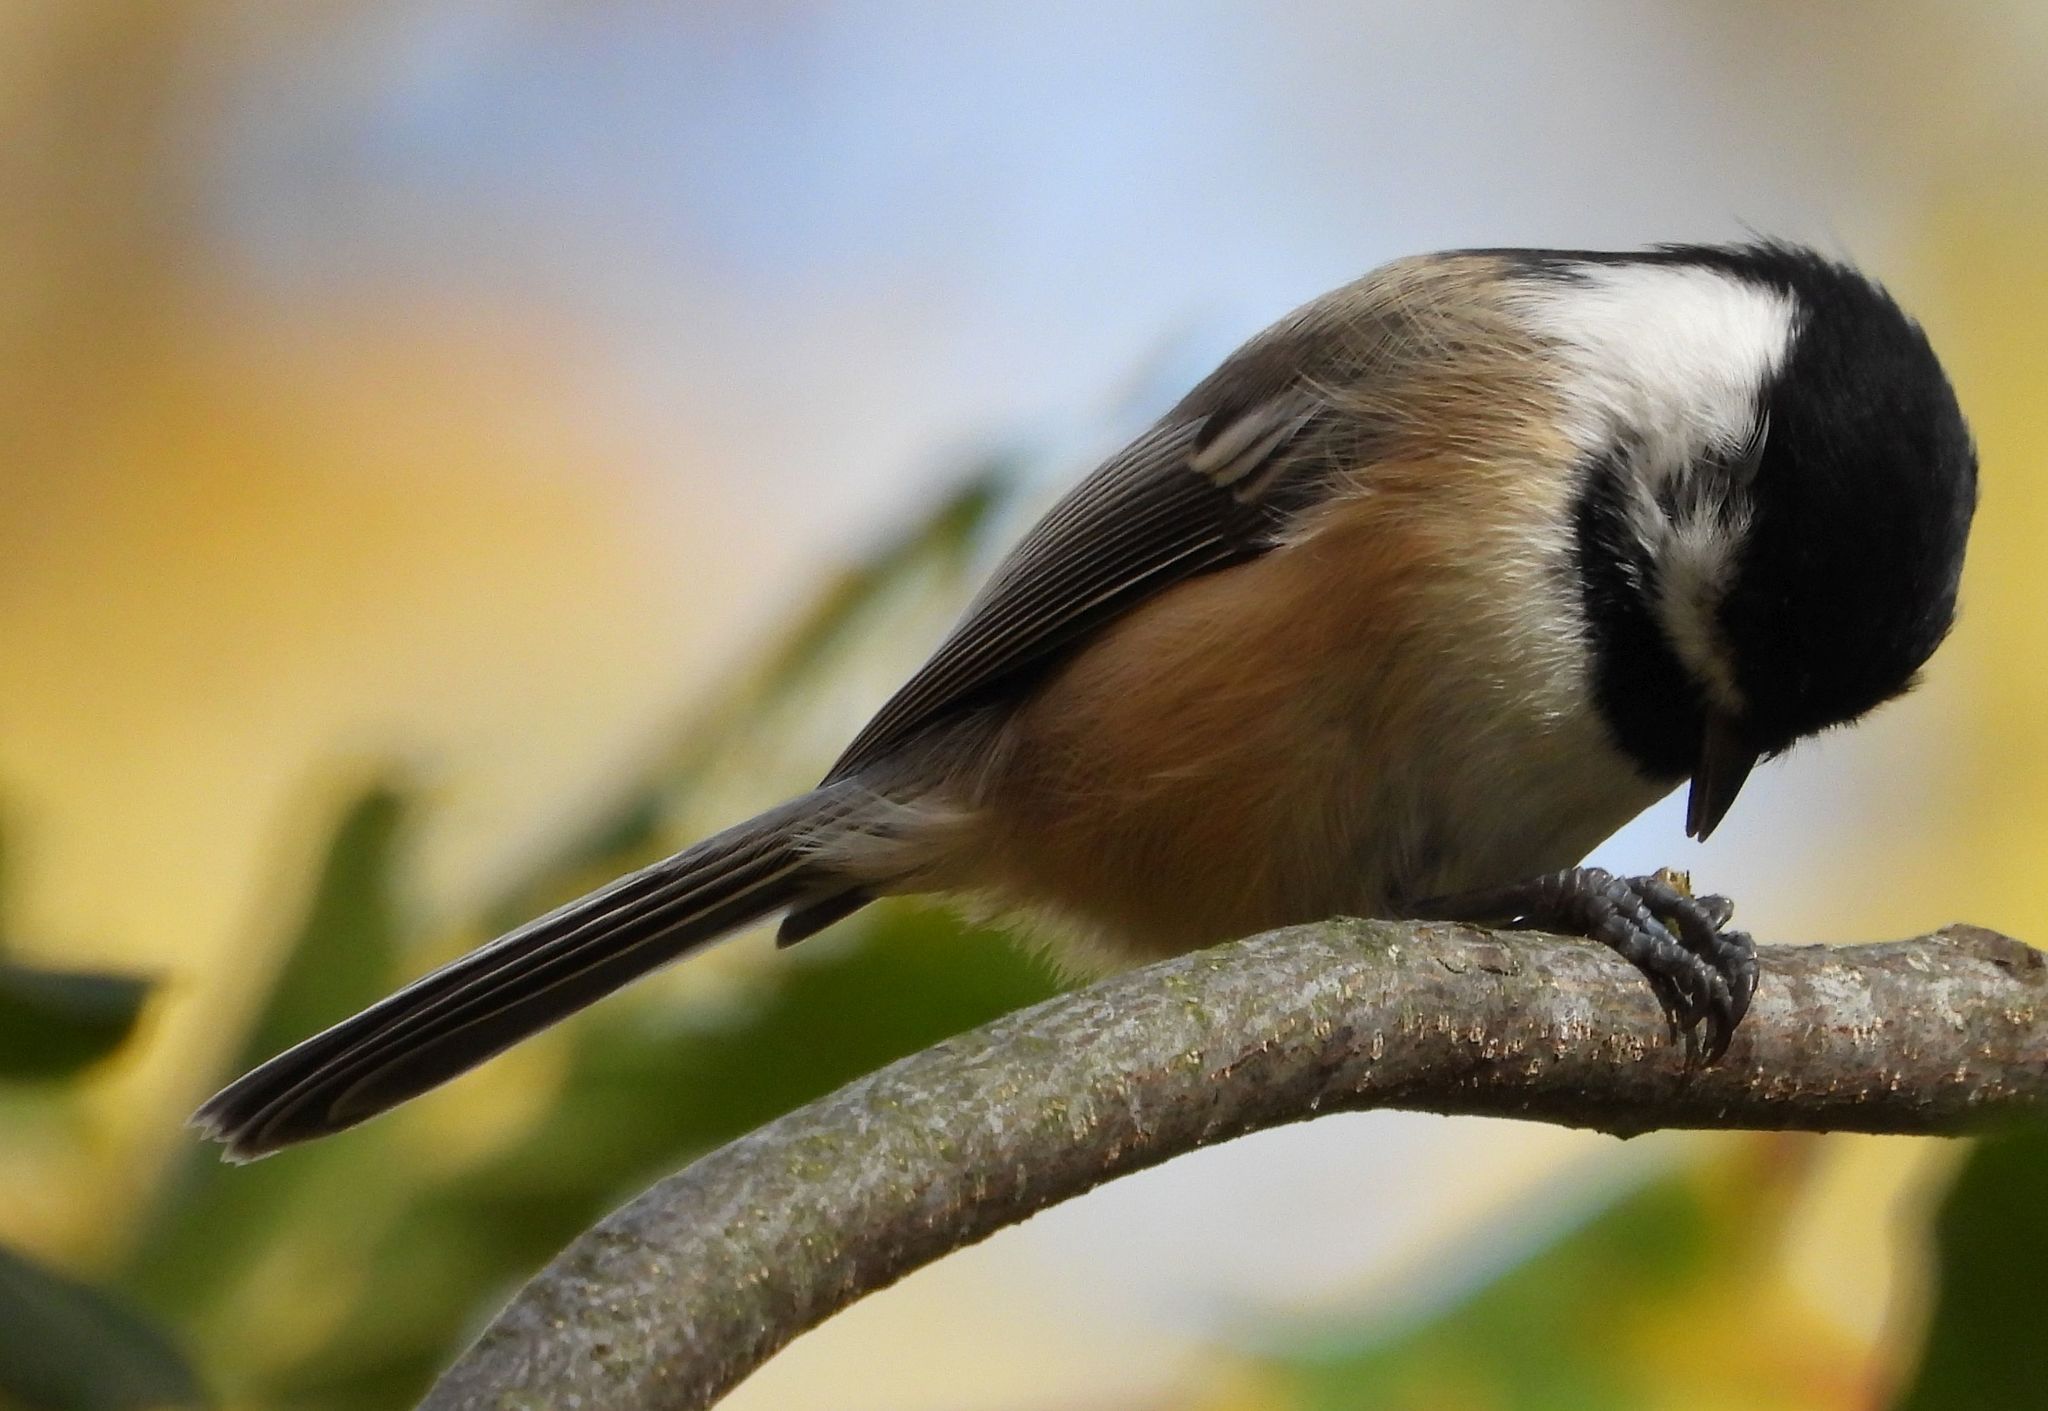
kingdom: Animalia
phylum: Chordata
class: Aves
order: Passeriformes
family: Paridae
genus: Poecile
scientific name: Poecile atricapillus
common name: Black-capped chickadee
